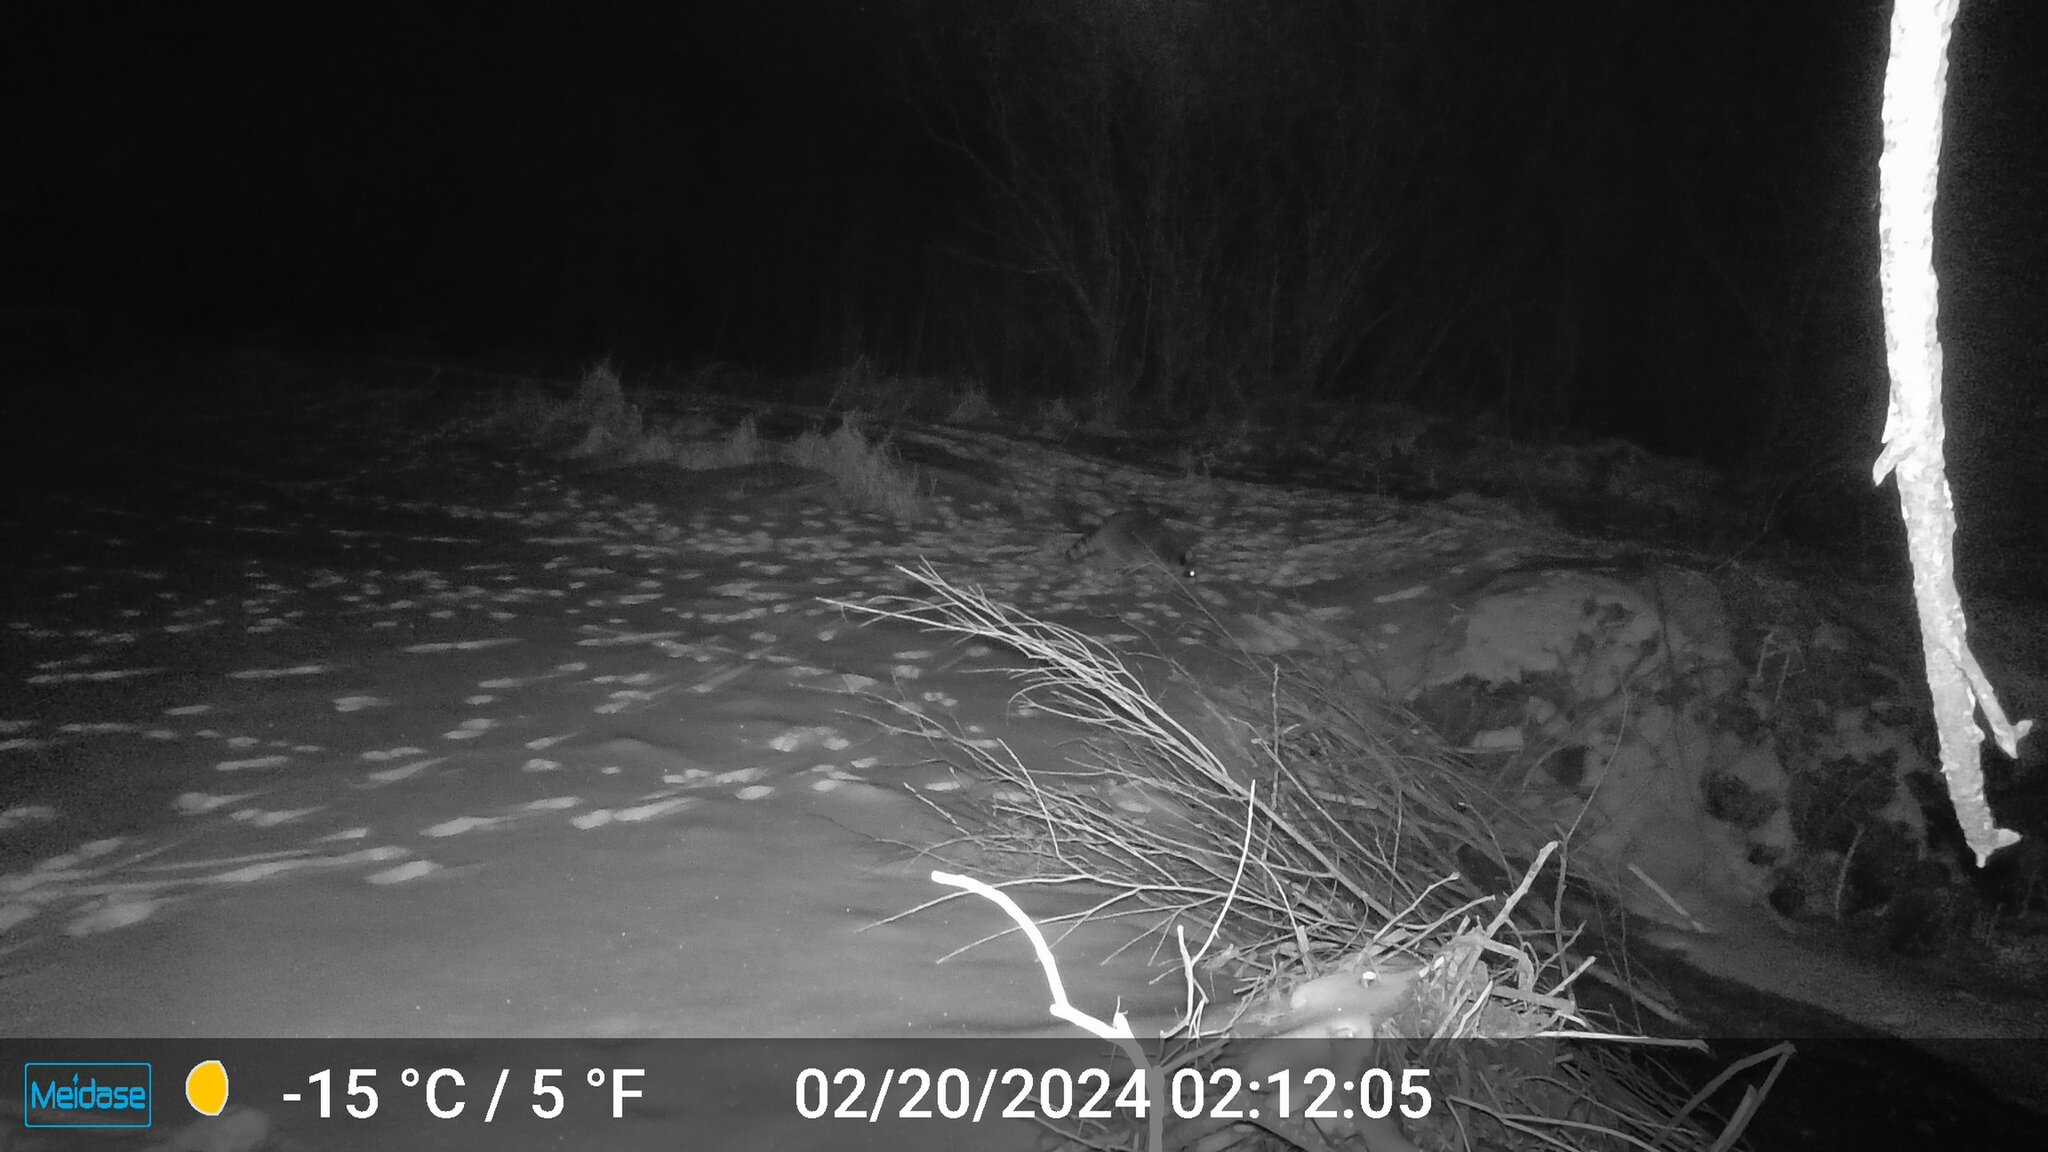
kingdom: Animalia
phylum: Chordata
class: Mammalia
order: Carnivora
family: Procyonidae
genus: Procyon
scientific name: Procyon lotor
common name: Raccoon
